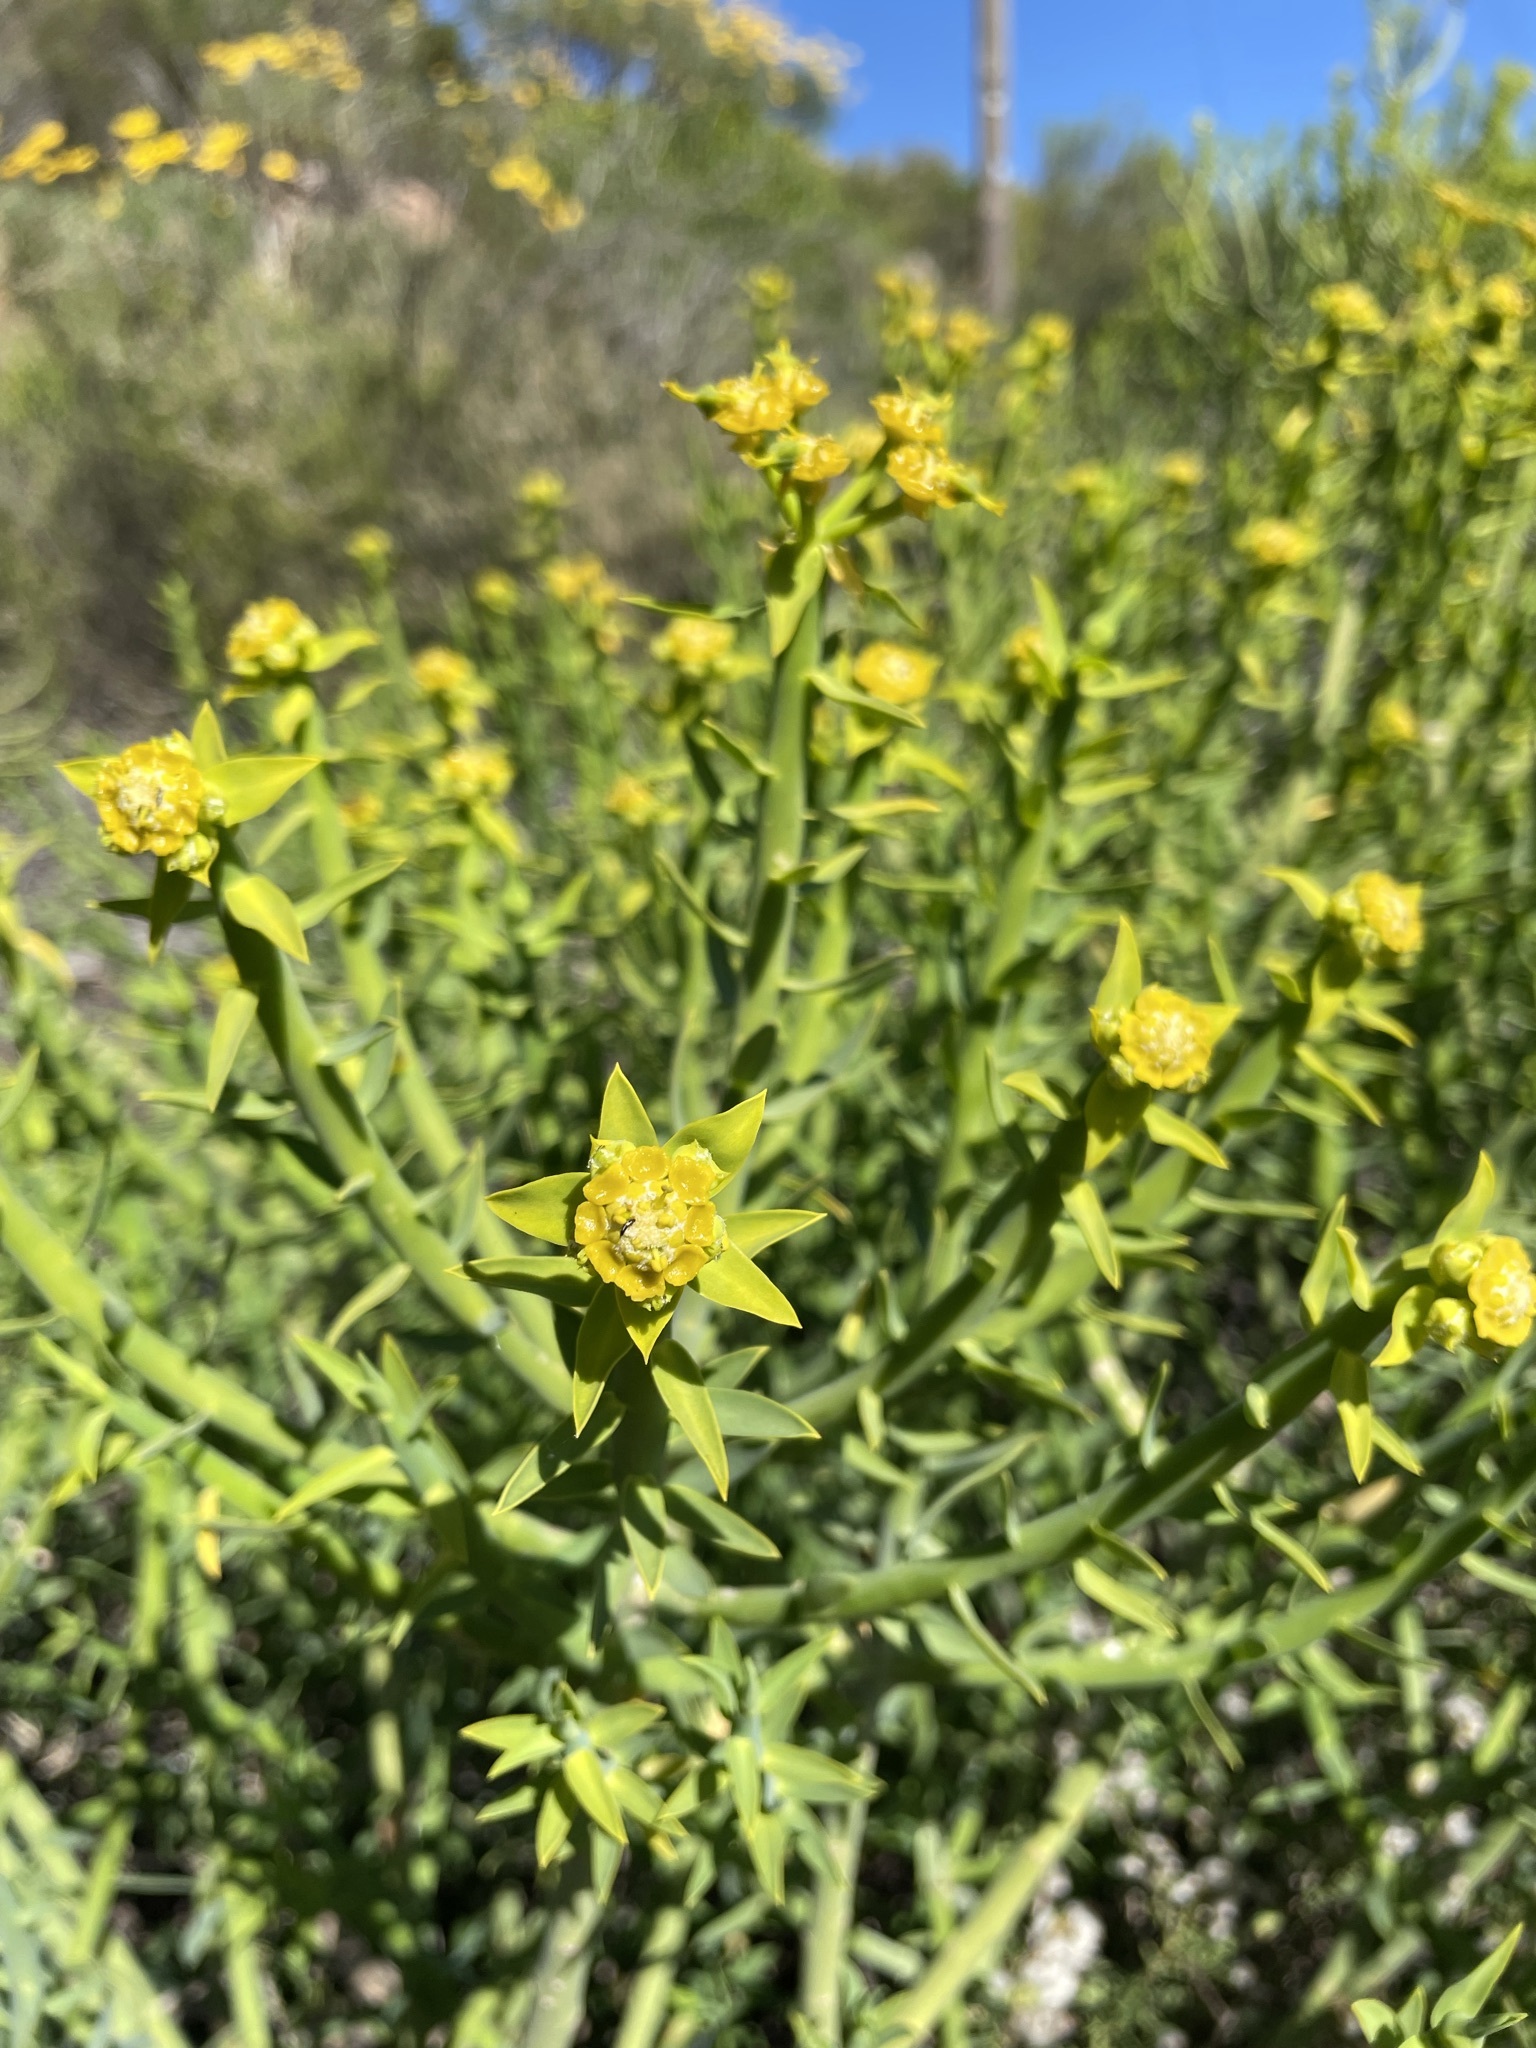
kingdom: Plantae
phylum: Tracheophyta
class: Magnoliopsida
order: Malpighiales
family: Euphorbiaceae
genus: Euphorbia
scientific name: Euphorbia mauritanica
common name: Jackal's-food
